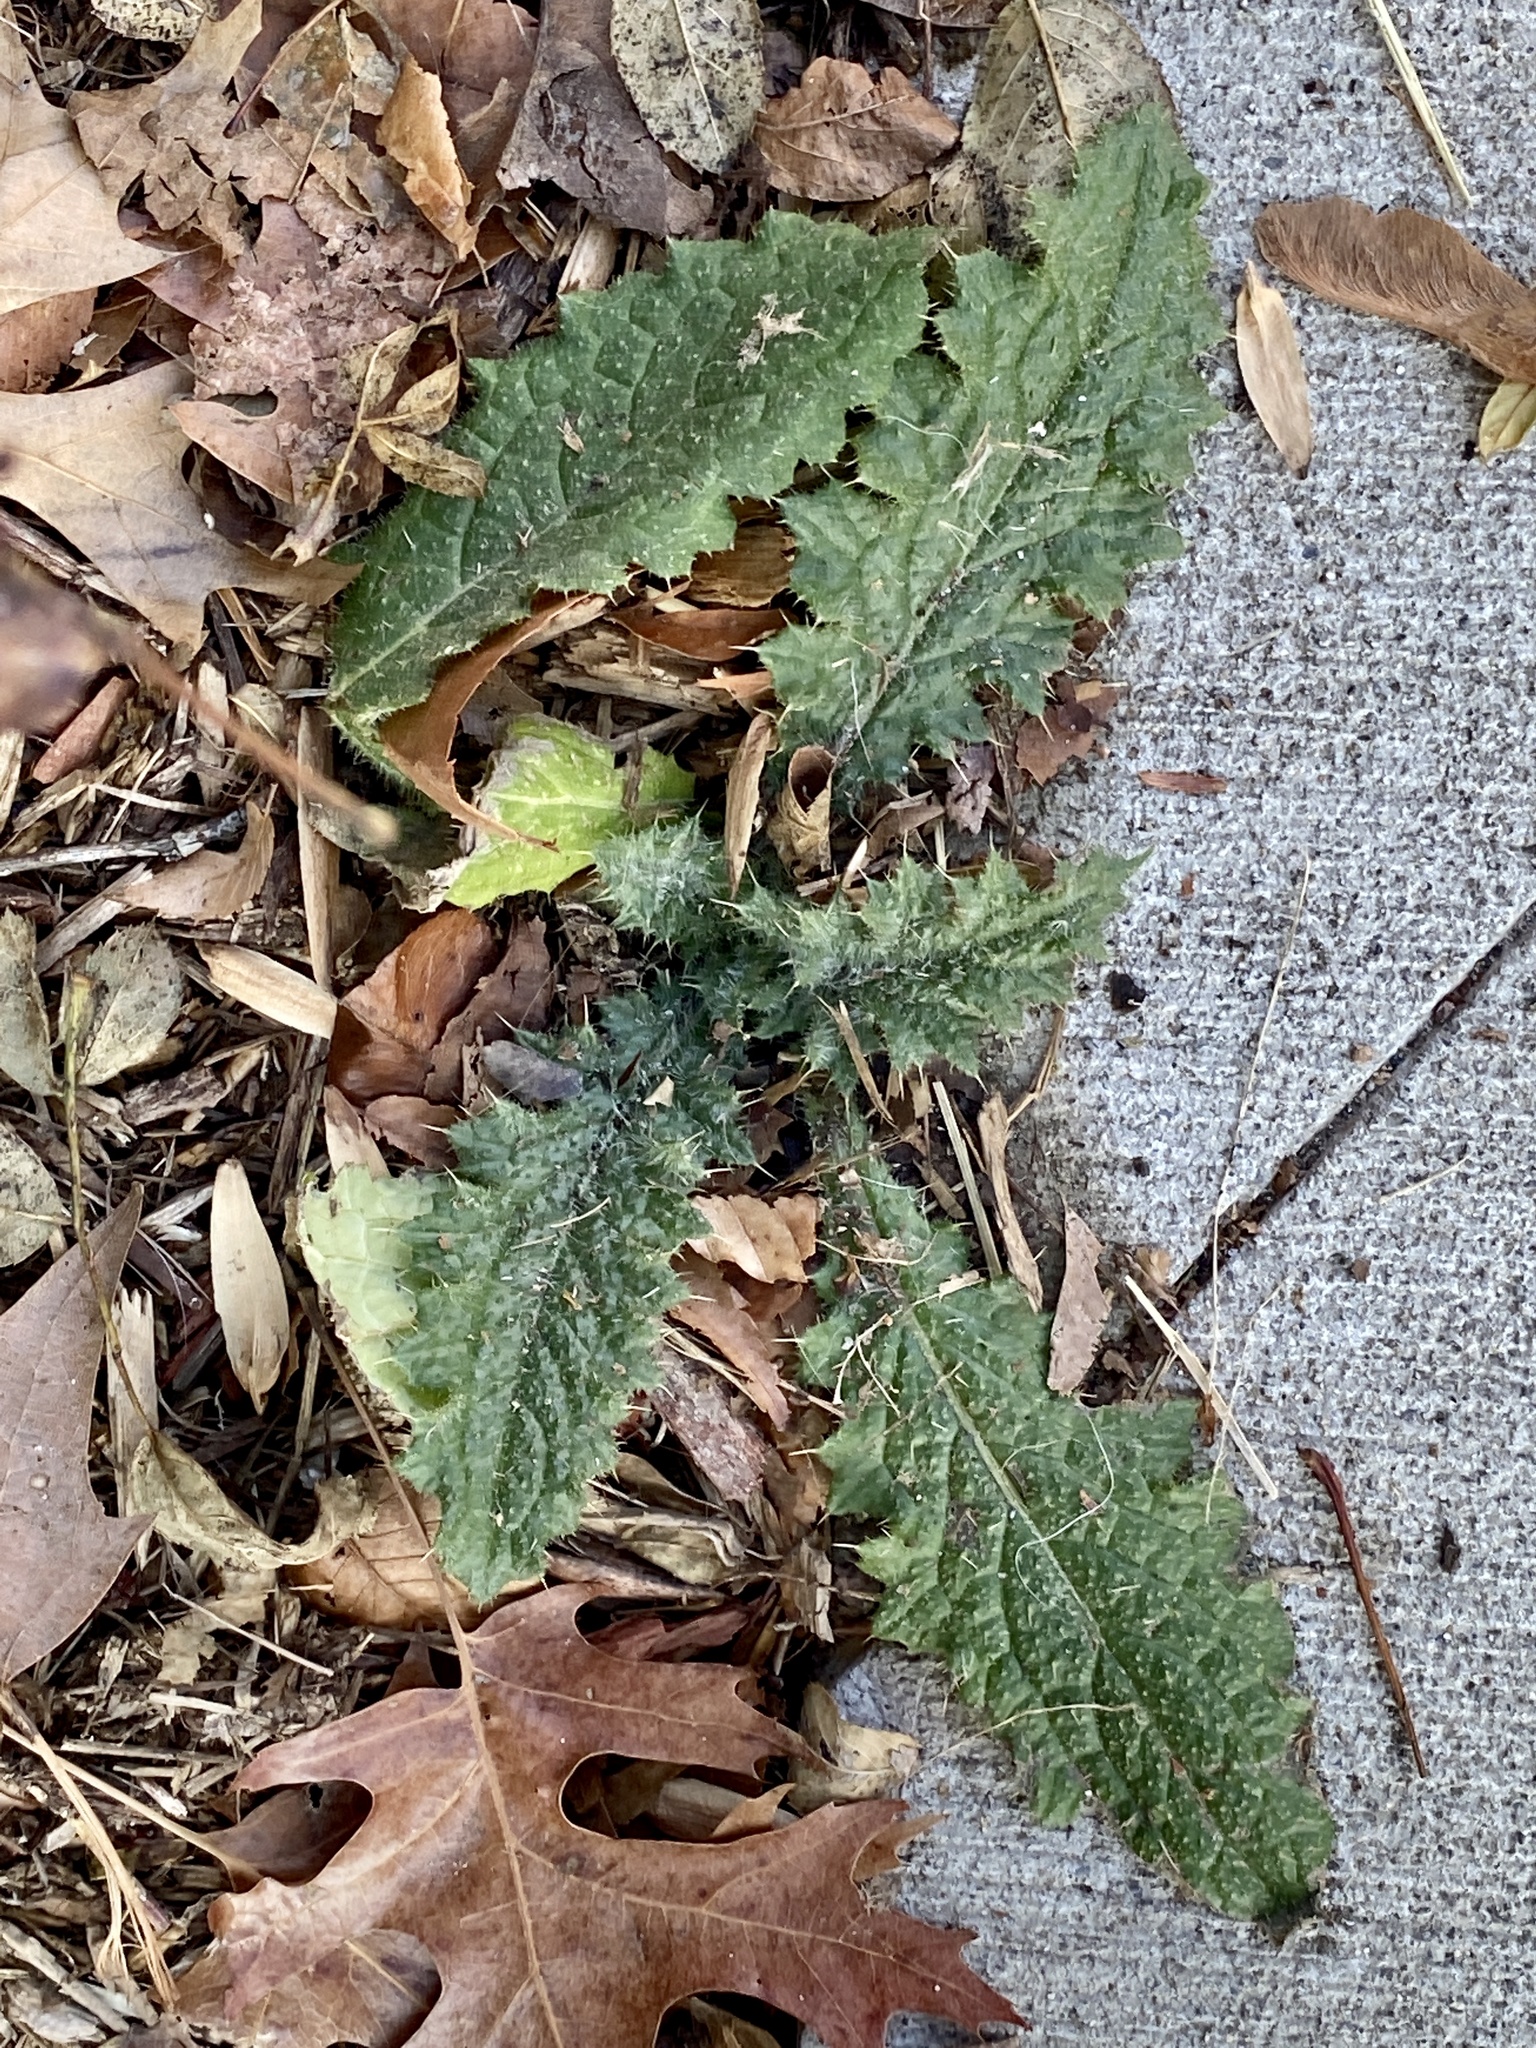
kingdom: Plantae
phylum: Tracheophyta
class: Magnoliopsida
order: Asterales
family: Asteraceae
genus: Cirsium
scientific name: Cirsium vulgare
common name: Bull thistle
